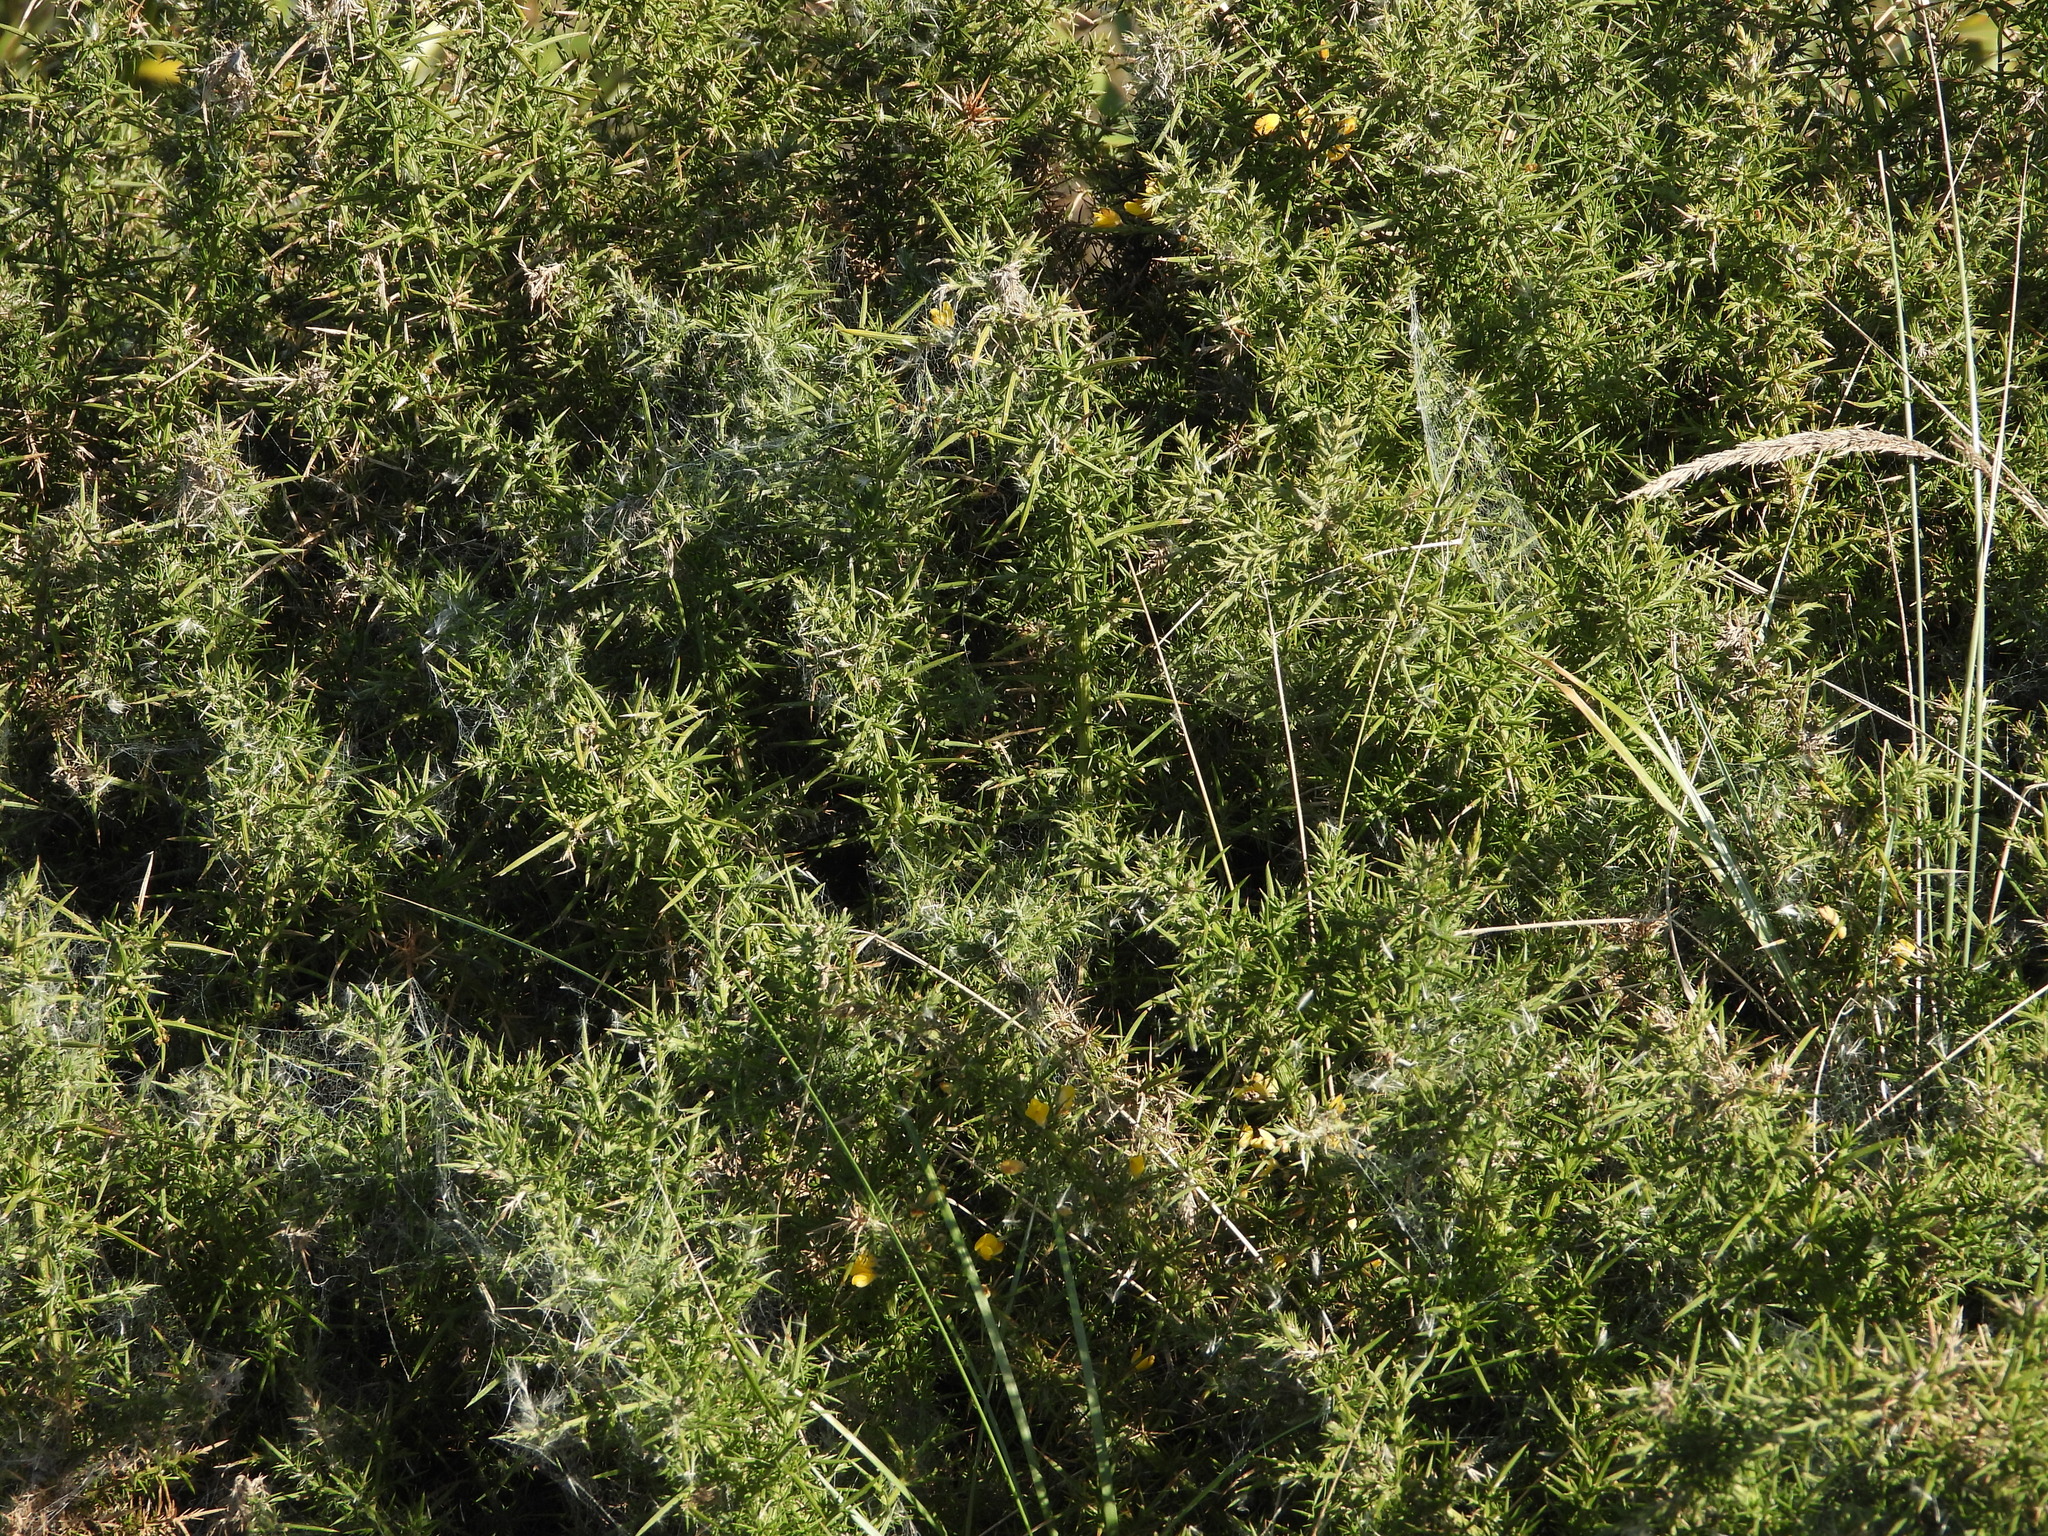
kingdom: Plantae
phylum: Tracheophyta
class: Magnoliopsida
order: Fabales
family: Fabaceae
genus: Ulex
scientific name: Ulex europaeus
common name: Common gorse
